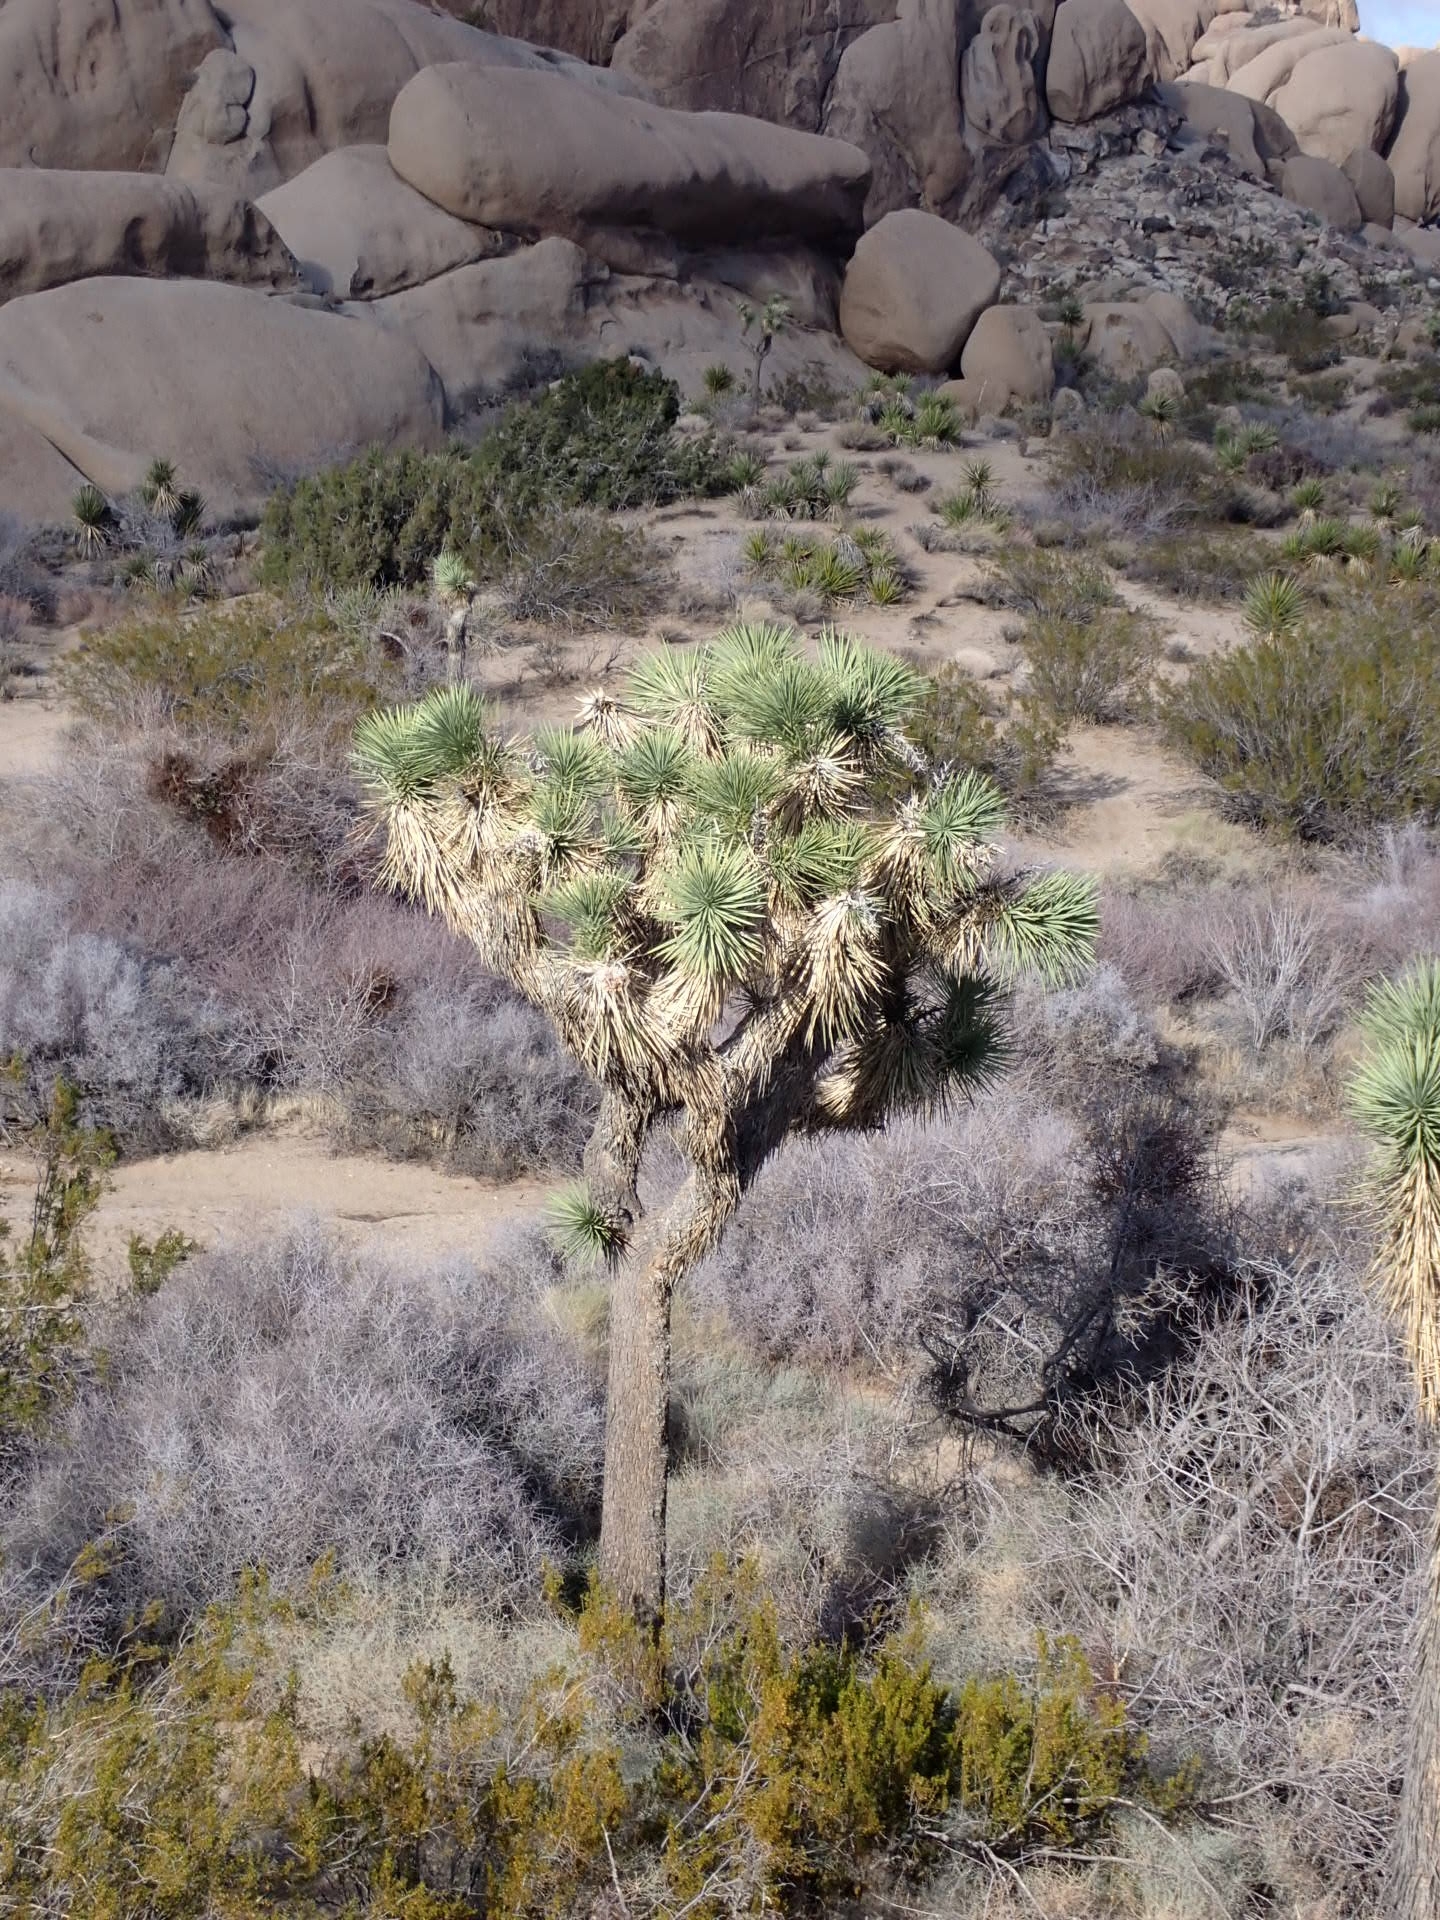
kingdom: Plantae
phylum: Tracheophyta
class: Liliopsida
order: Asparagales
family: Asparagaceae
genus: Yucca
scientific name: Yucca brevifolia
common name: Joshua tree
